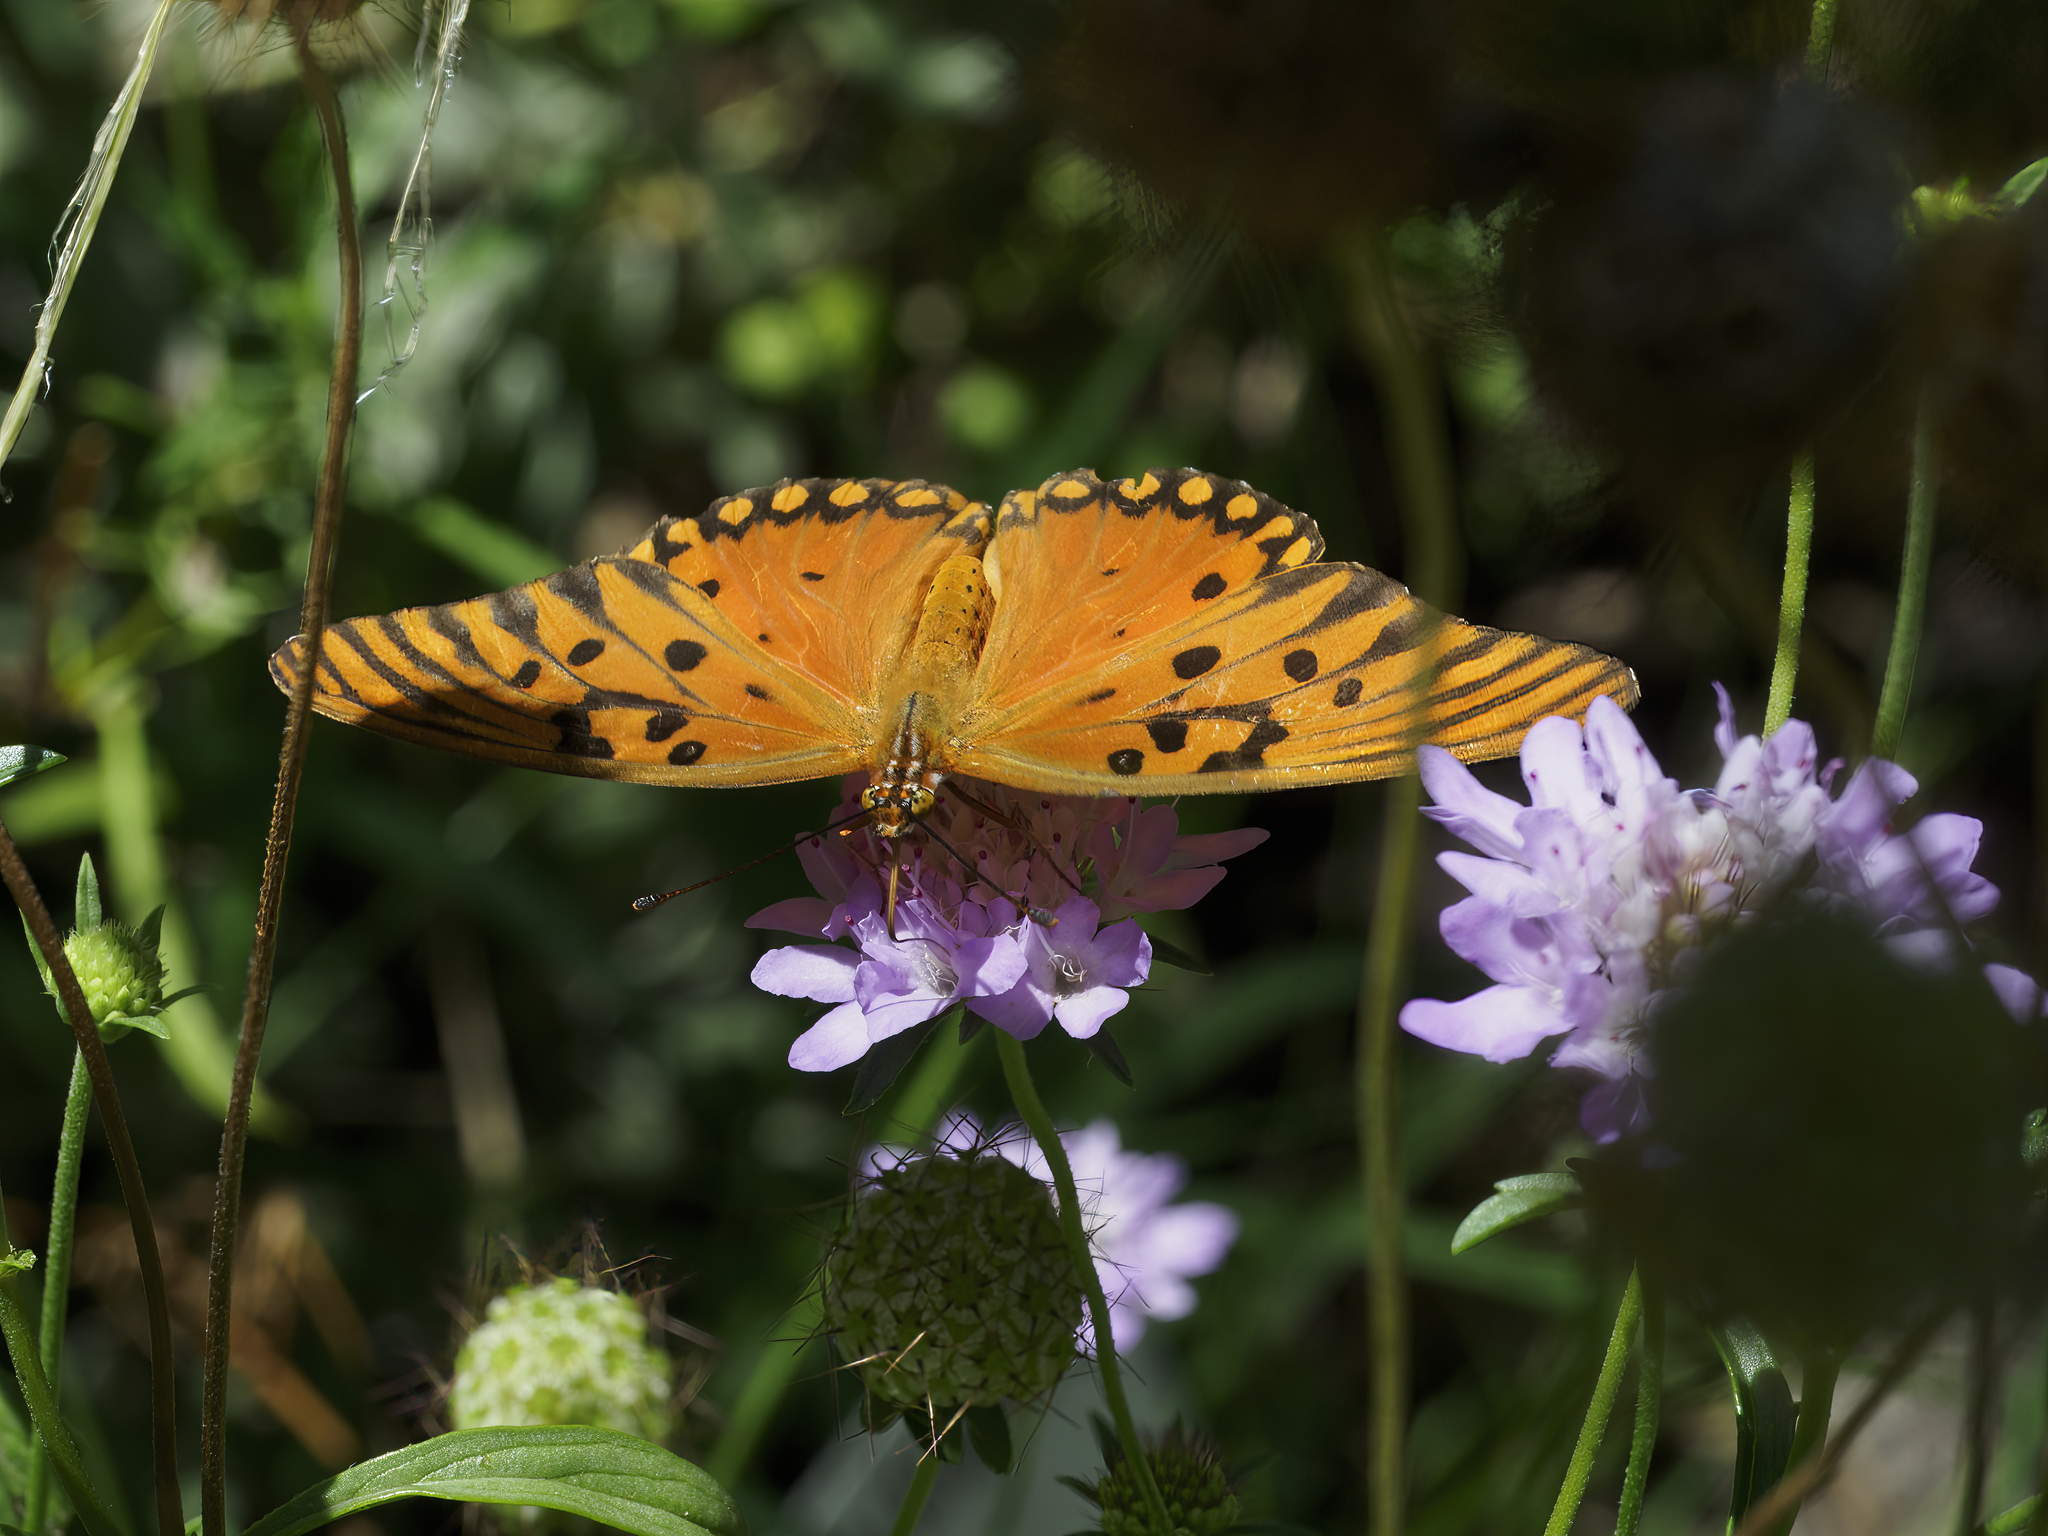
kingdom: Animalia
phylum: Arthropoda
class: Insecta
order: Lepidoptera
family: Nymphalidae
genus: Dione
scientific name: Dione vanillae
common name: Gulf fritillary
